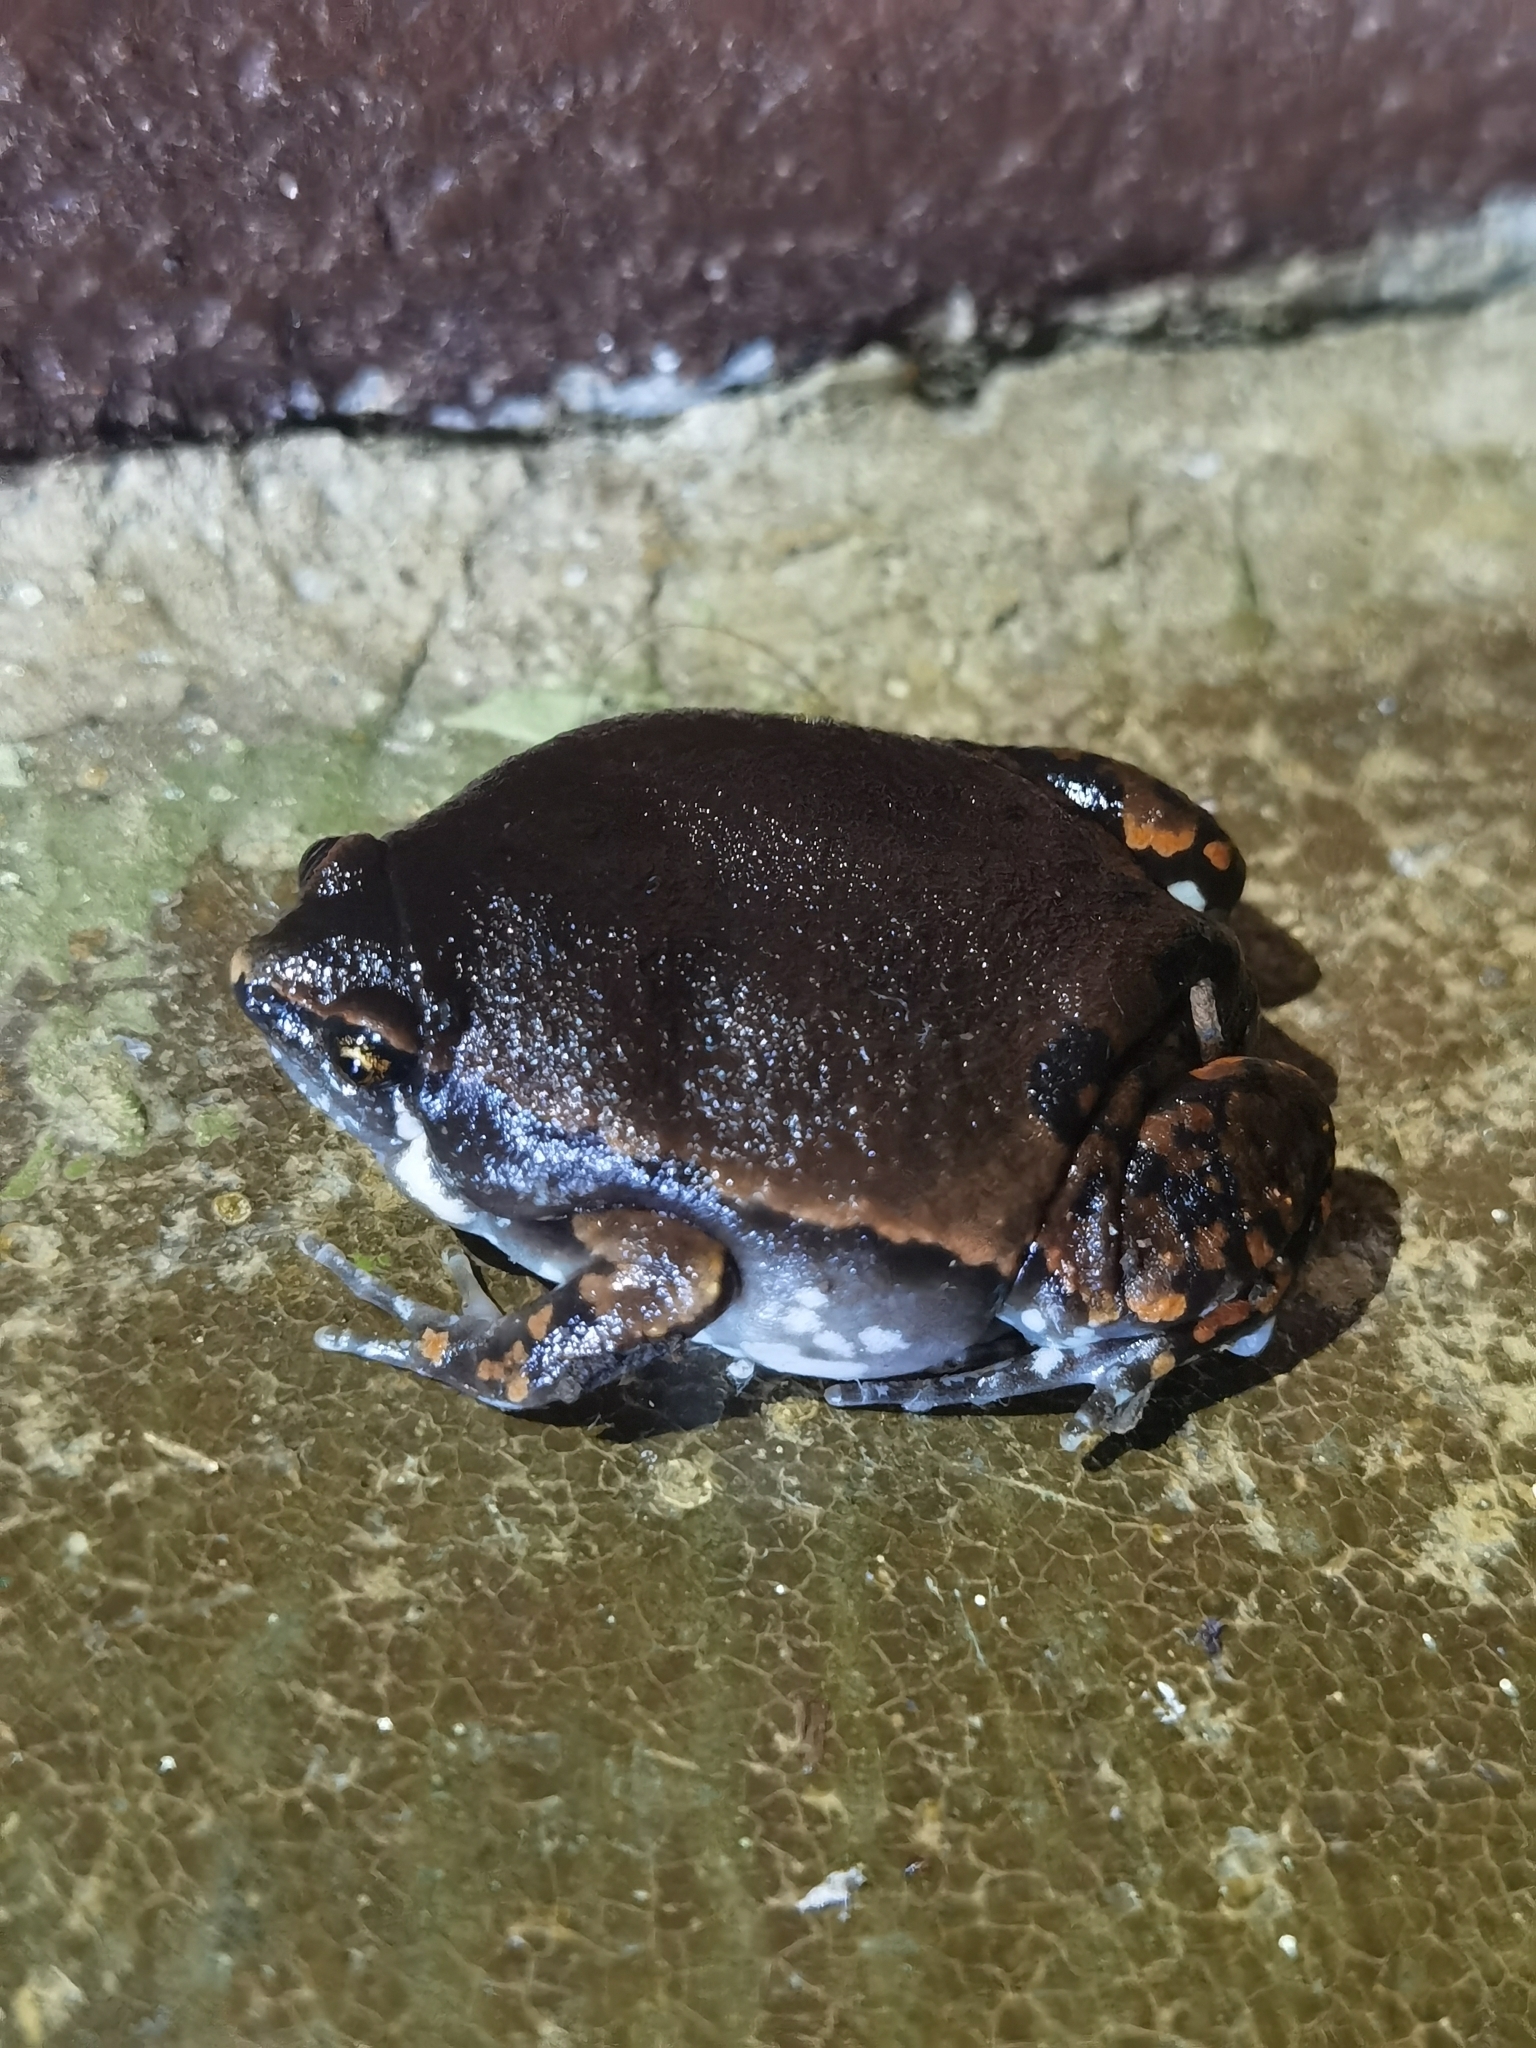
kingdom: Animalia
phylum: Chordata
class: Amphibia
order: Anura
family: Microhylidae
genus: Hypopachus
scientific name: Hypopachus variolosus
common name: Sheep frog
